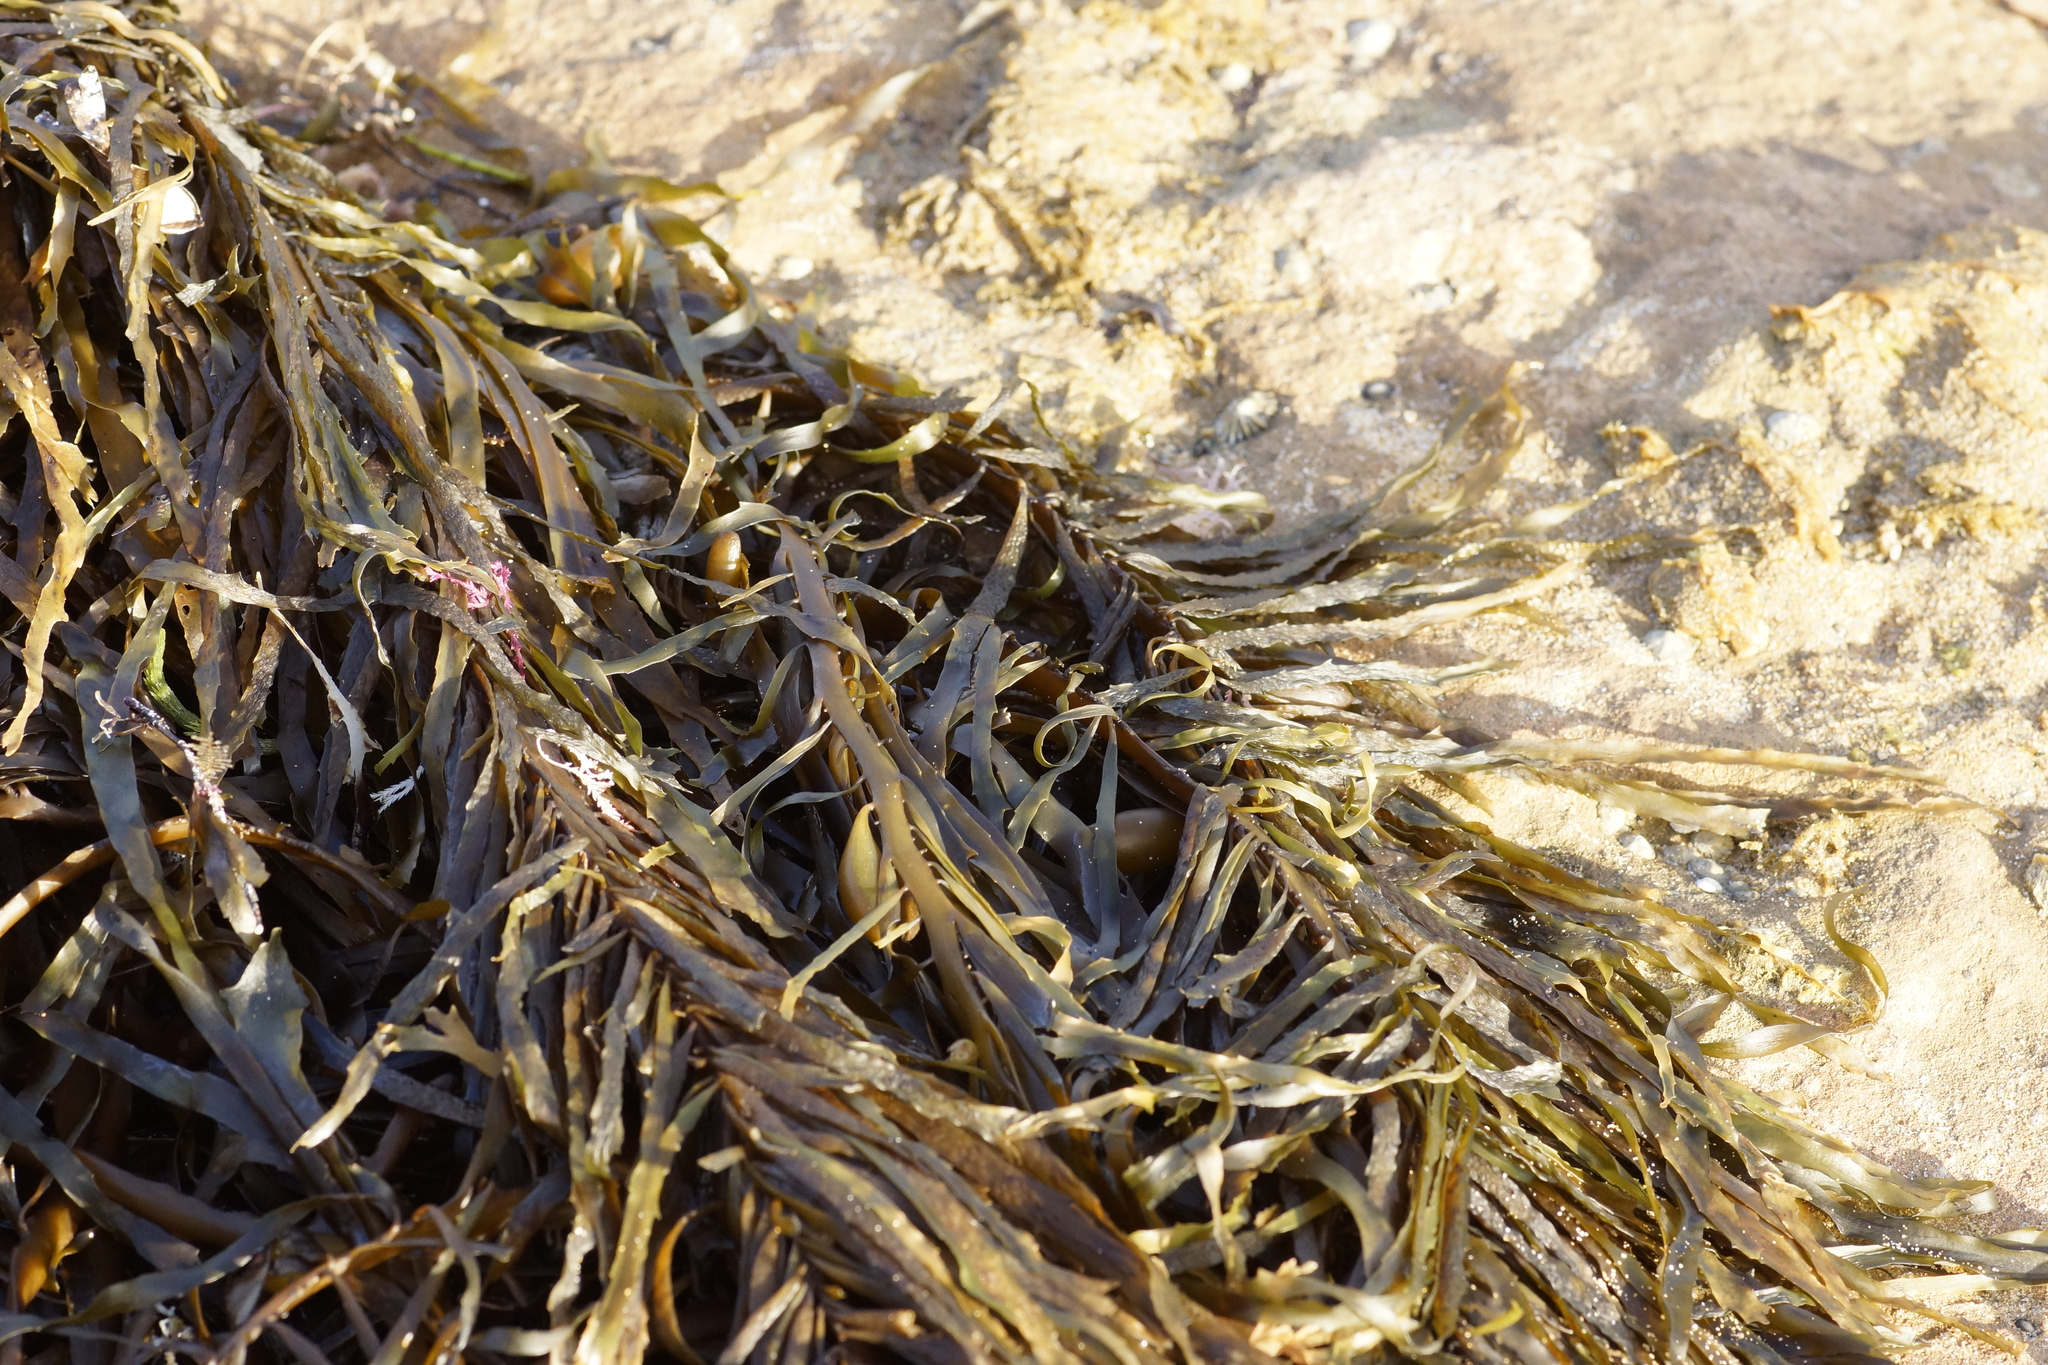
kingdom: Chromista
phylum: Ochrophyta
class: Phaeophyceae
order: Fucales
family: Seirococcaceae
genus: Phyllospora
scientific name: Phyllospora
